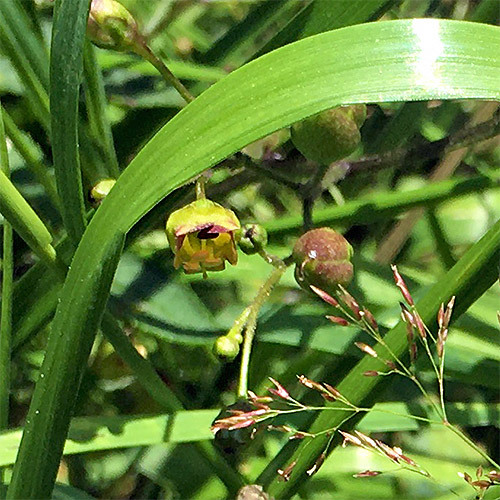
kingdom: Plantae
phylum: Tracheophyta
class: Magnoliopsida
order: Lamiales
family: Scrophulariaceae
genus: Scrophularia
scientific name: Scrophularia nodosa
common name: Common figwort
